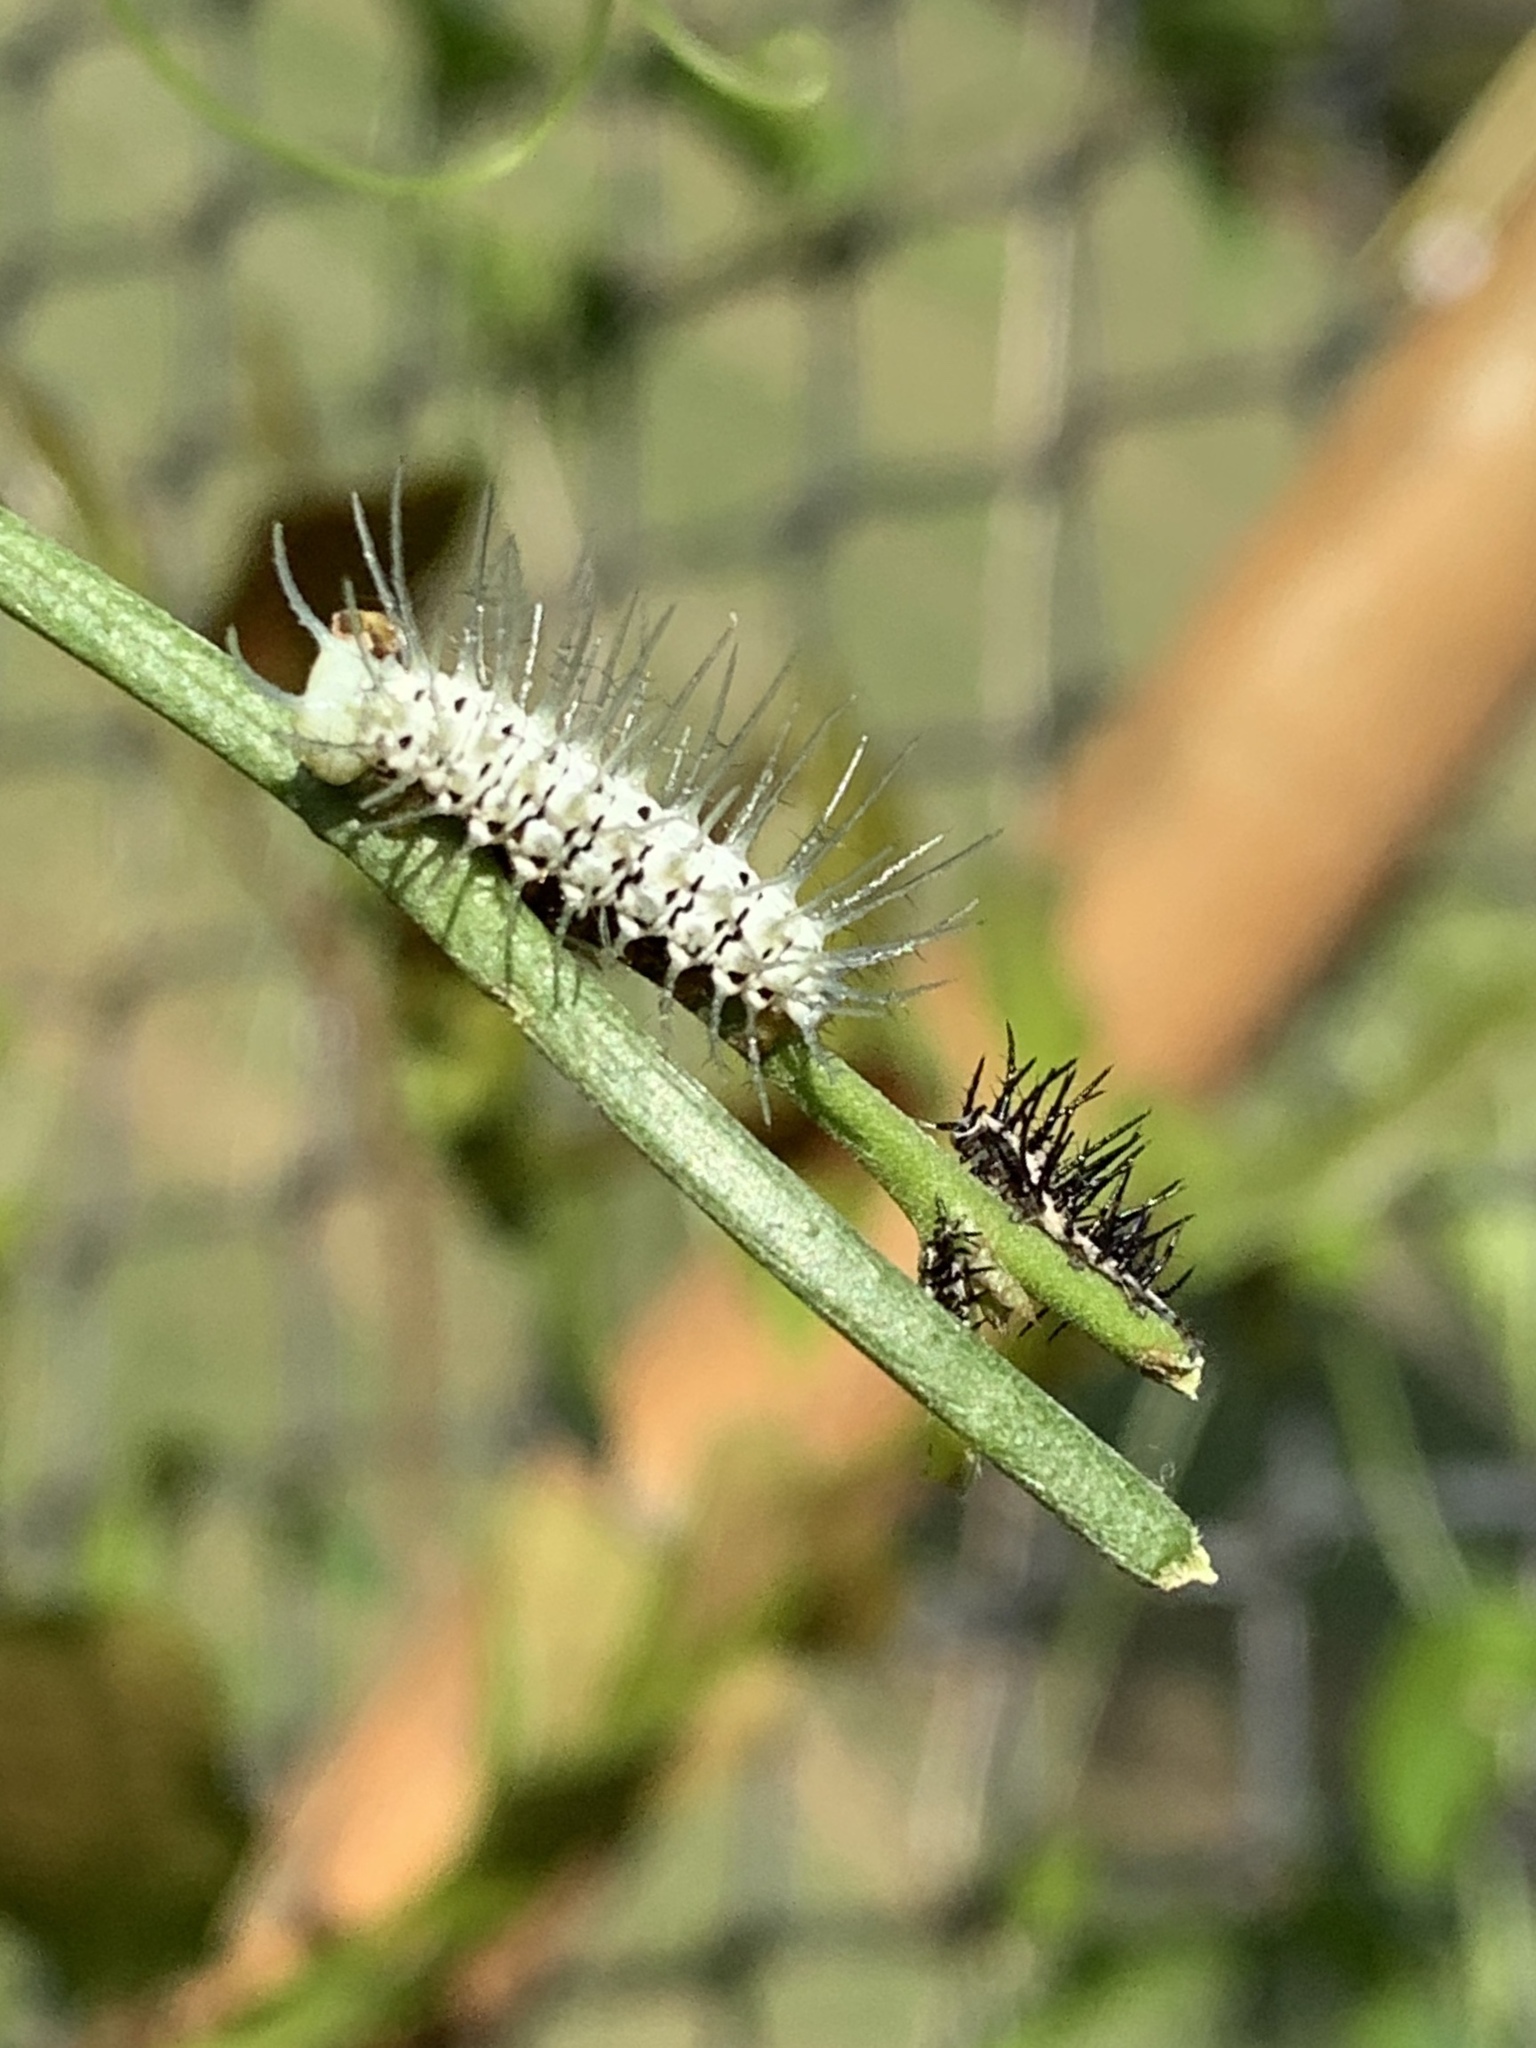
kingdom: Animalia
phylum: Arthropoda
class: Insecta
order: Lepidoptera
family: Nymphalidae
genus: Heliconius
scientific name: Heliconius charithonia
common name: Zebra long wing
